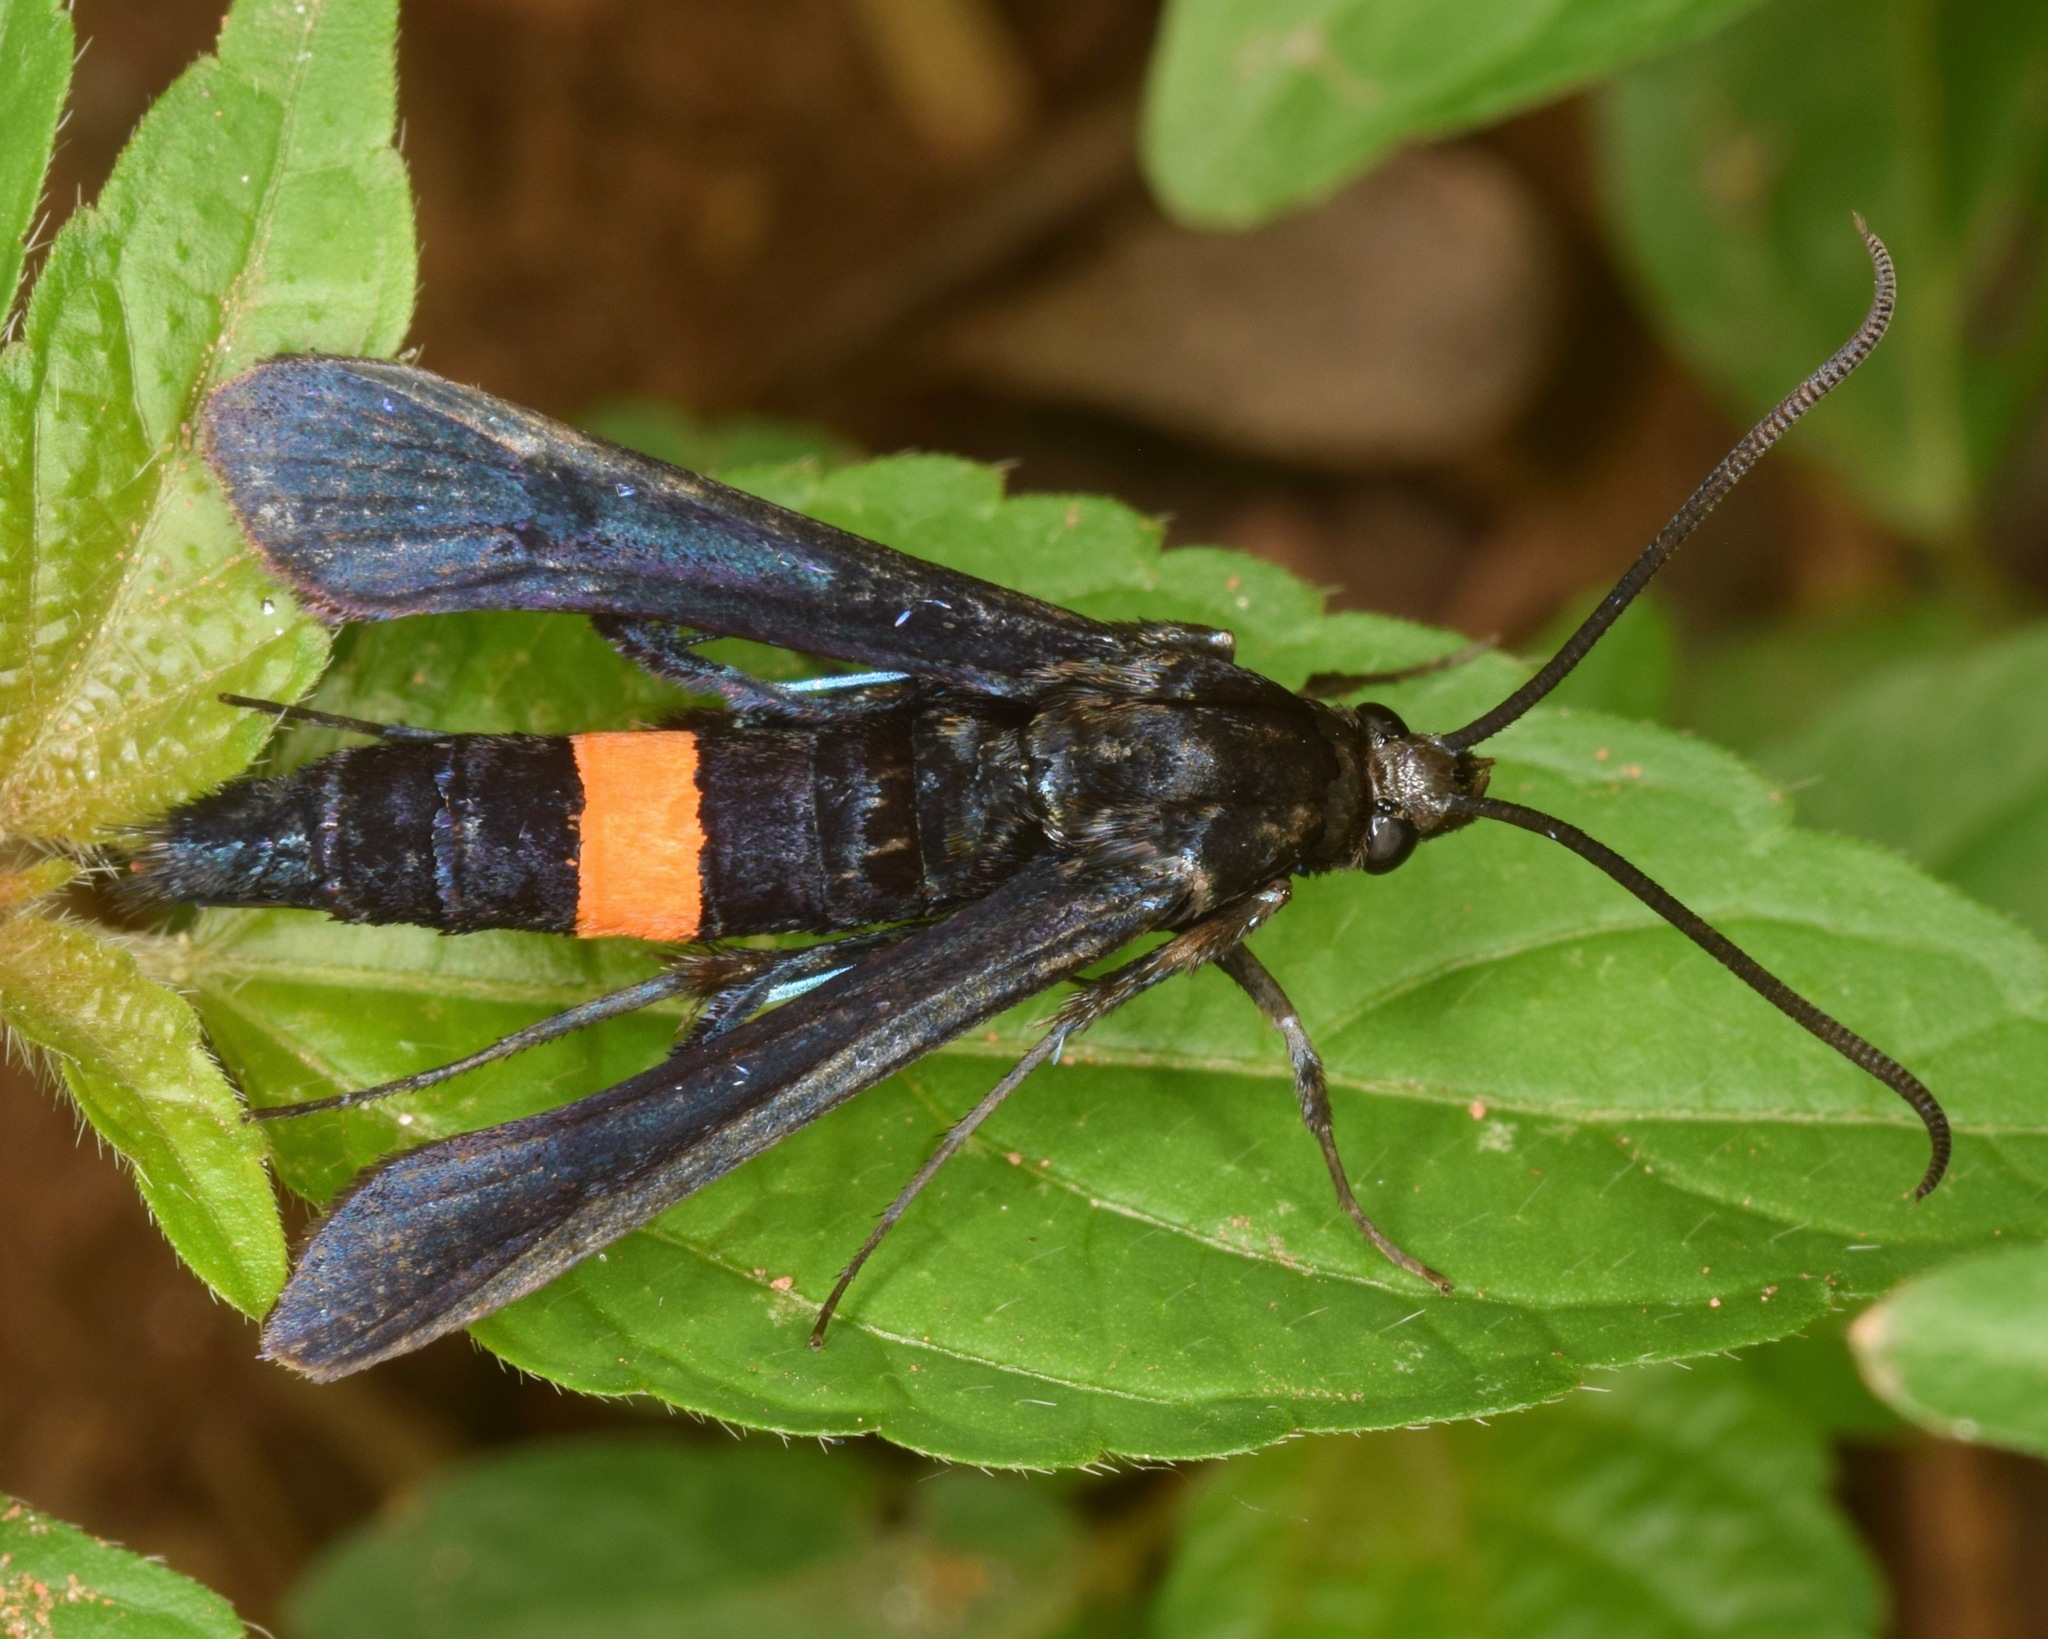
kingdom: Animalia
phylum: Arthropoda
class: Insecta
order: Lepidoptera
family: Sesiidae
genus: Synanthedon
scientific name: Synanthedon exitiosa
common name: Peachtree borer moth
